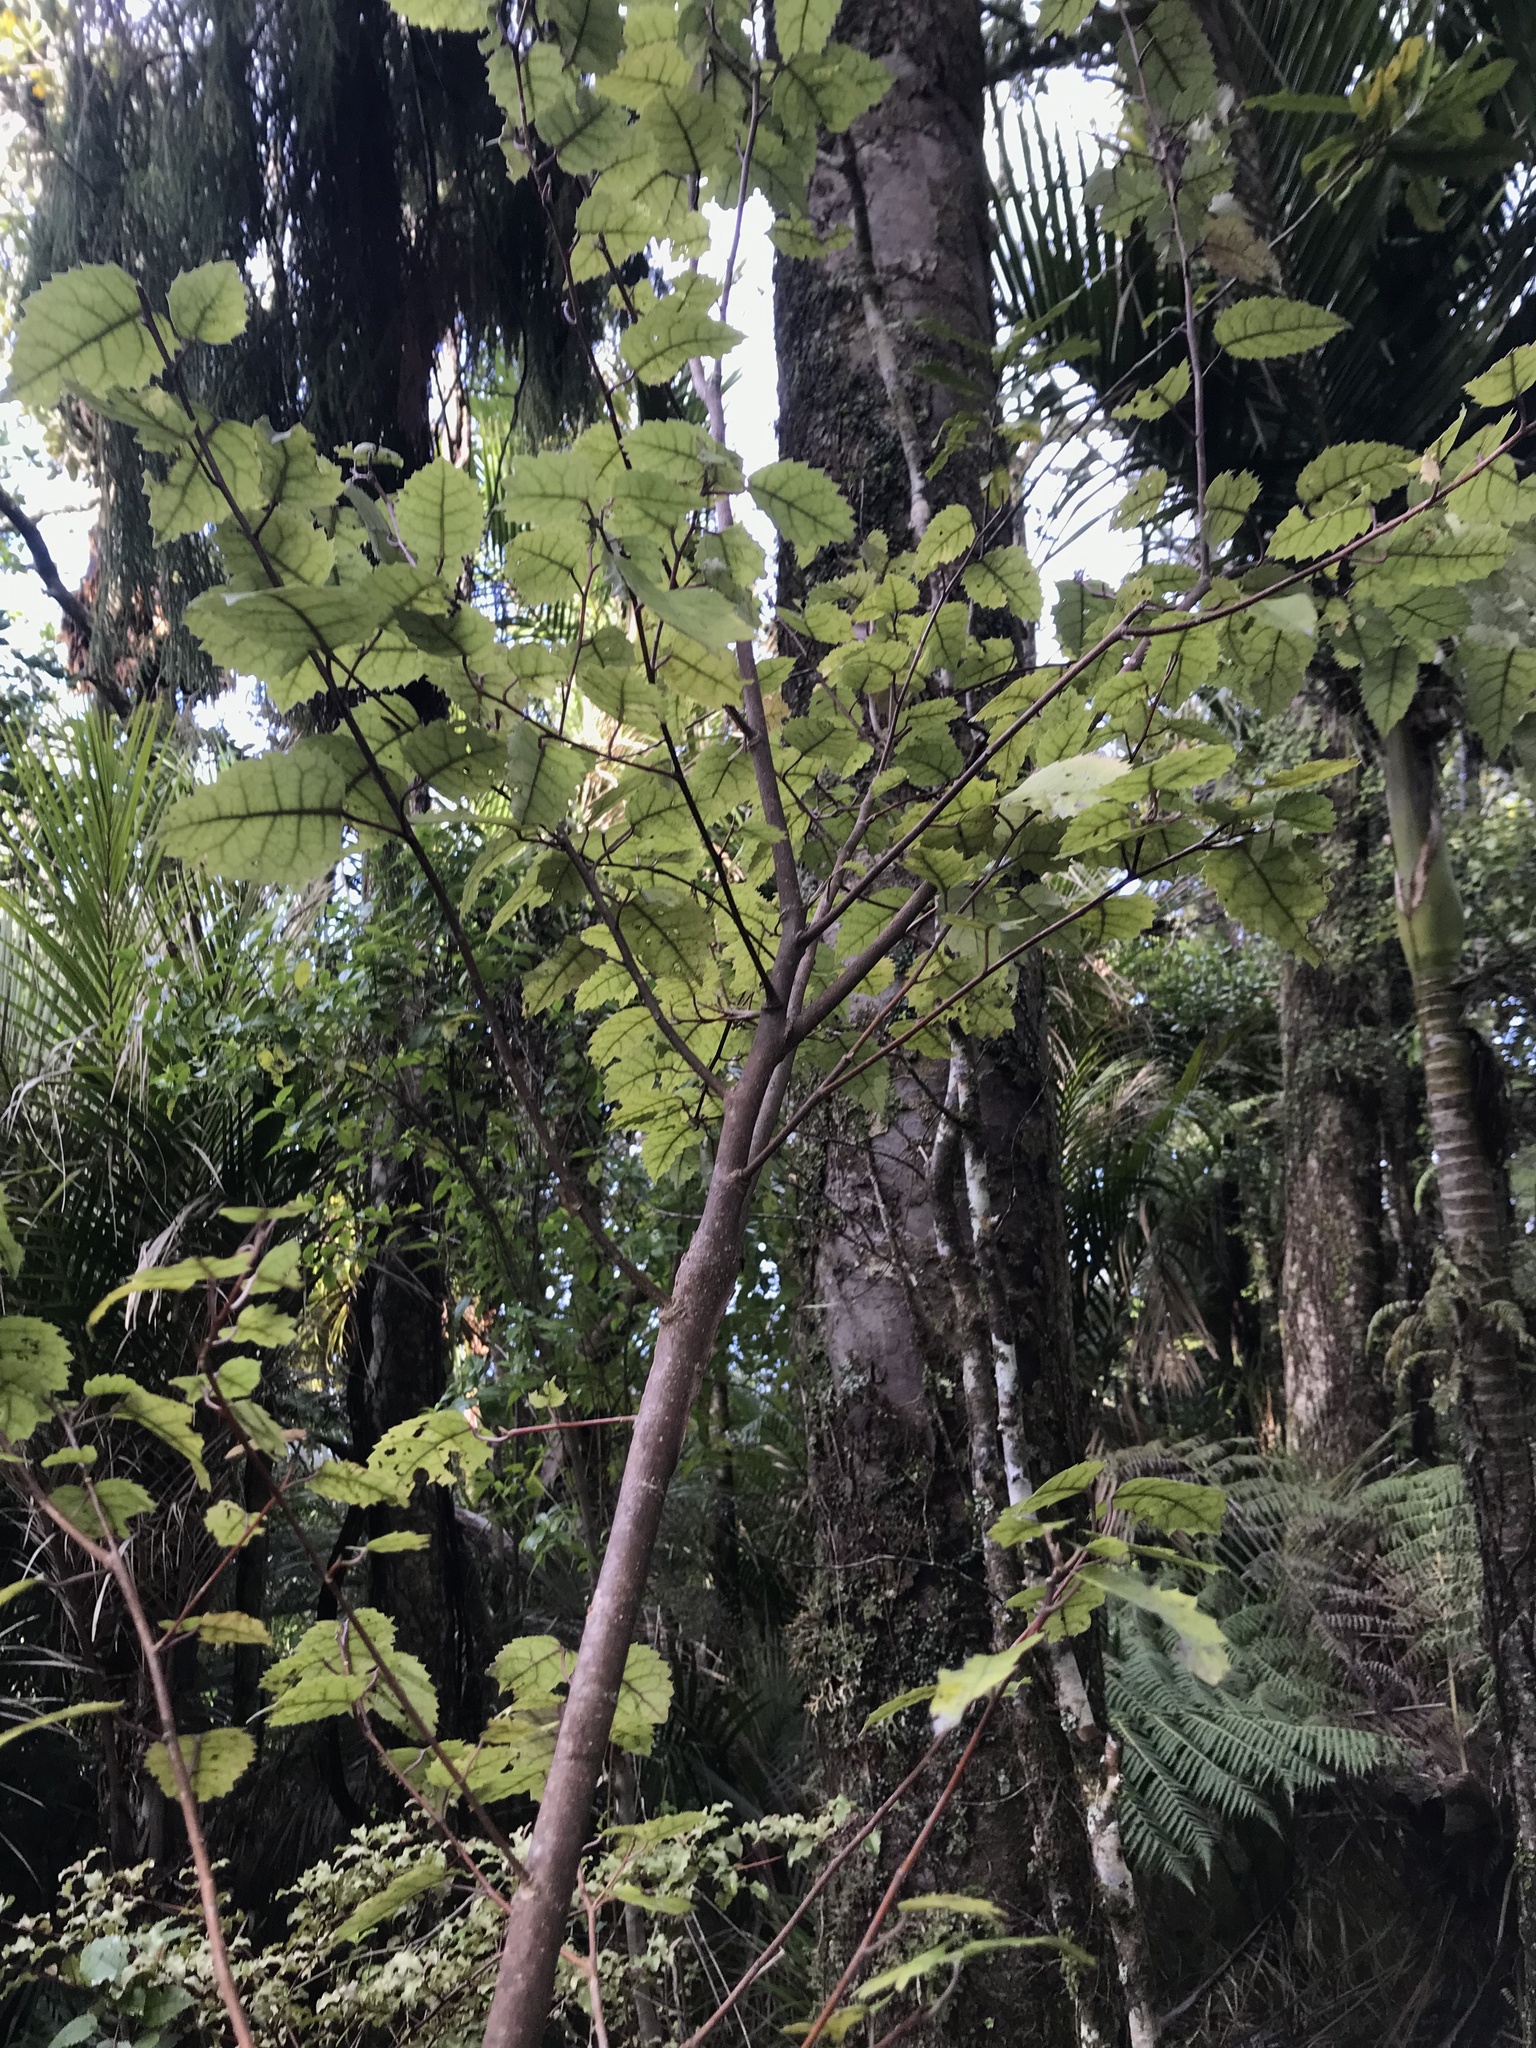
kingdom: Plantae
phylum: Tracheophyta
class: Magnoliopsida
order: Malvales
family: Malvaceae
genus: Hoheria
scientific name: Hoheria populnea
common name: Lacebark
